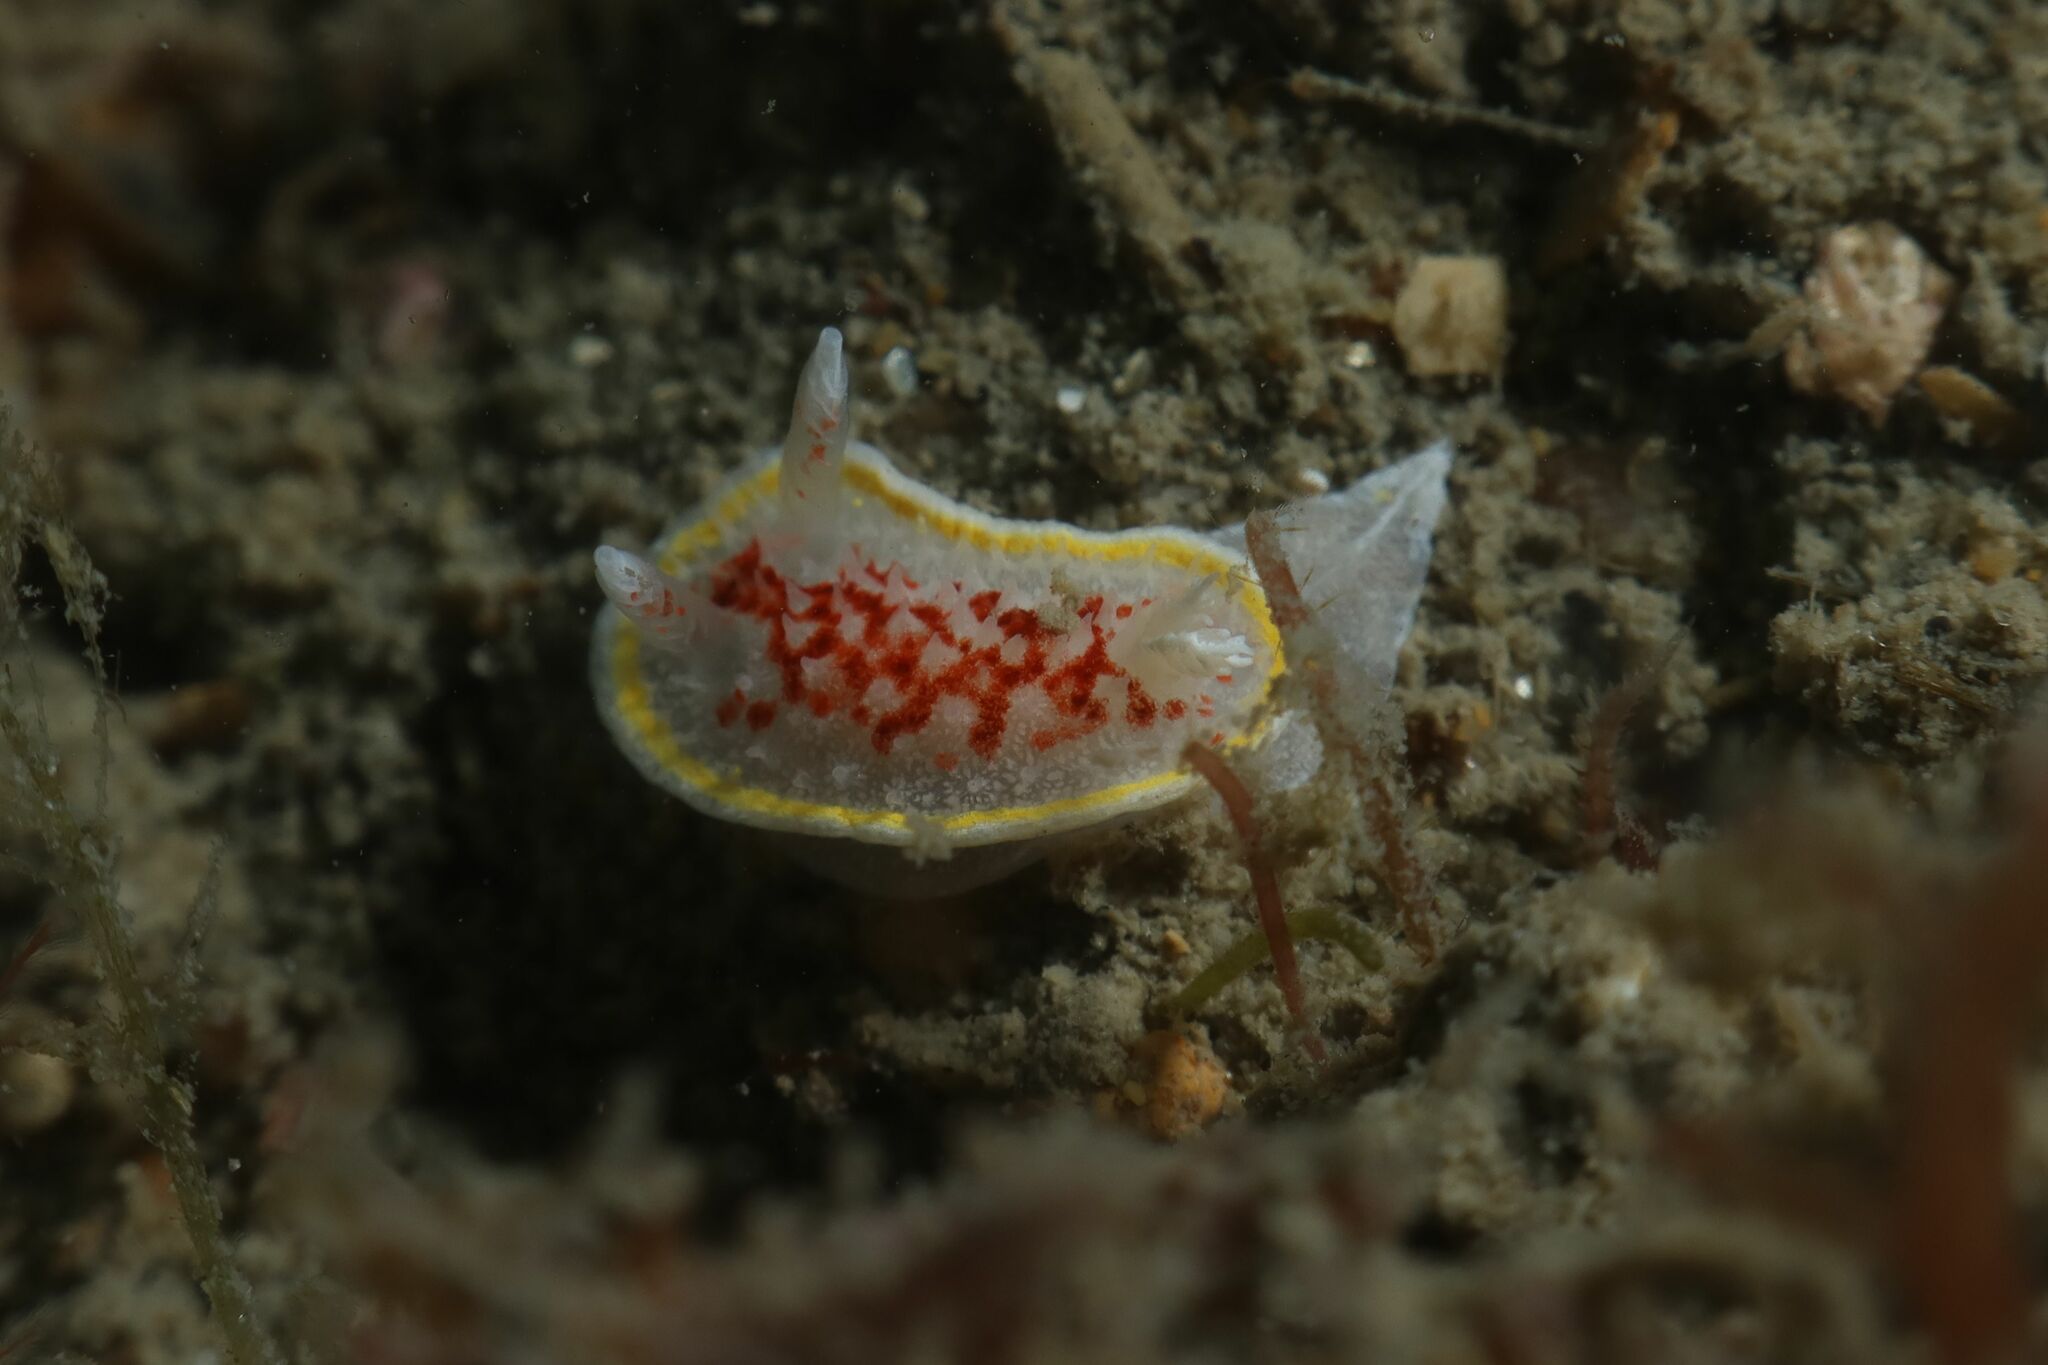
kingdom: Animalia
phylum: Mollusca
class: Gastropoda
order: Nudibranchia
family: Calycidorididae
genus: Diaphorodoris
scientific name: Diaphorodoris luteocincta
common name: Fried egg nudibranch
